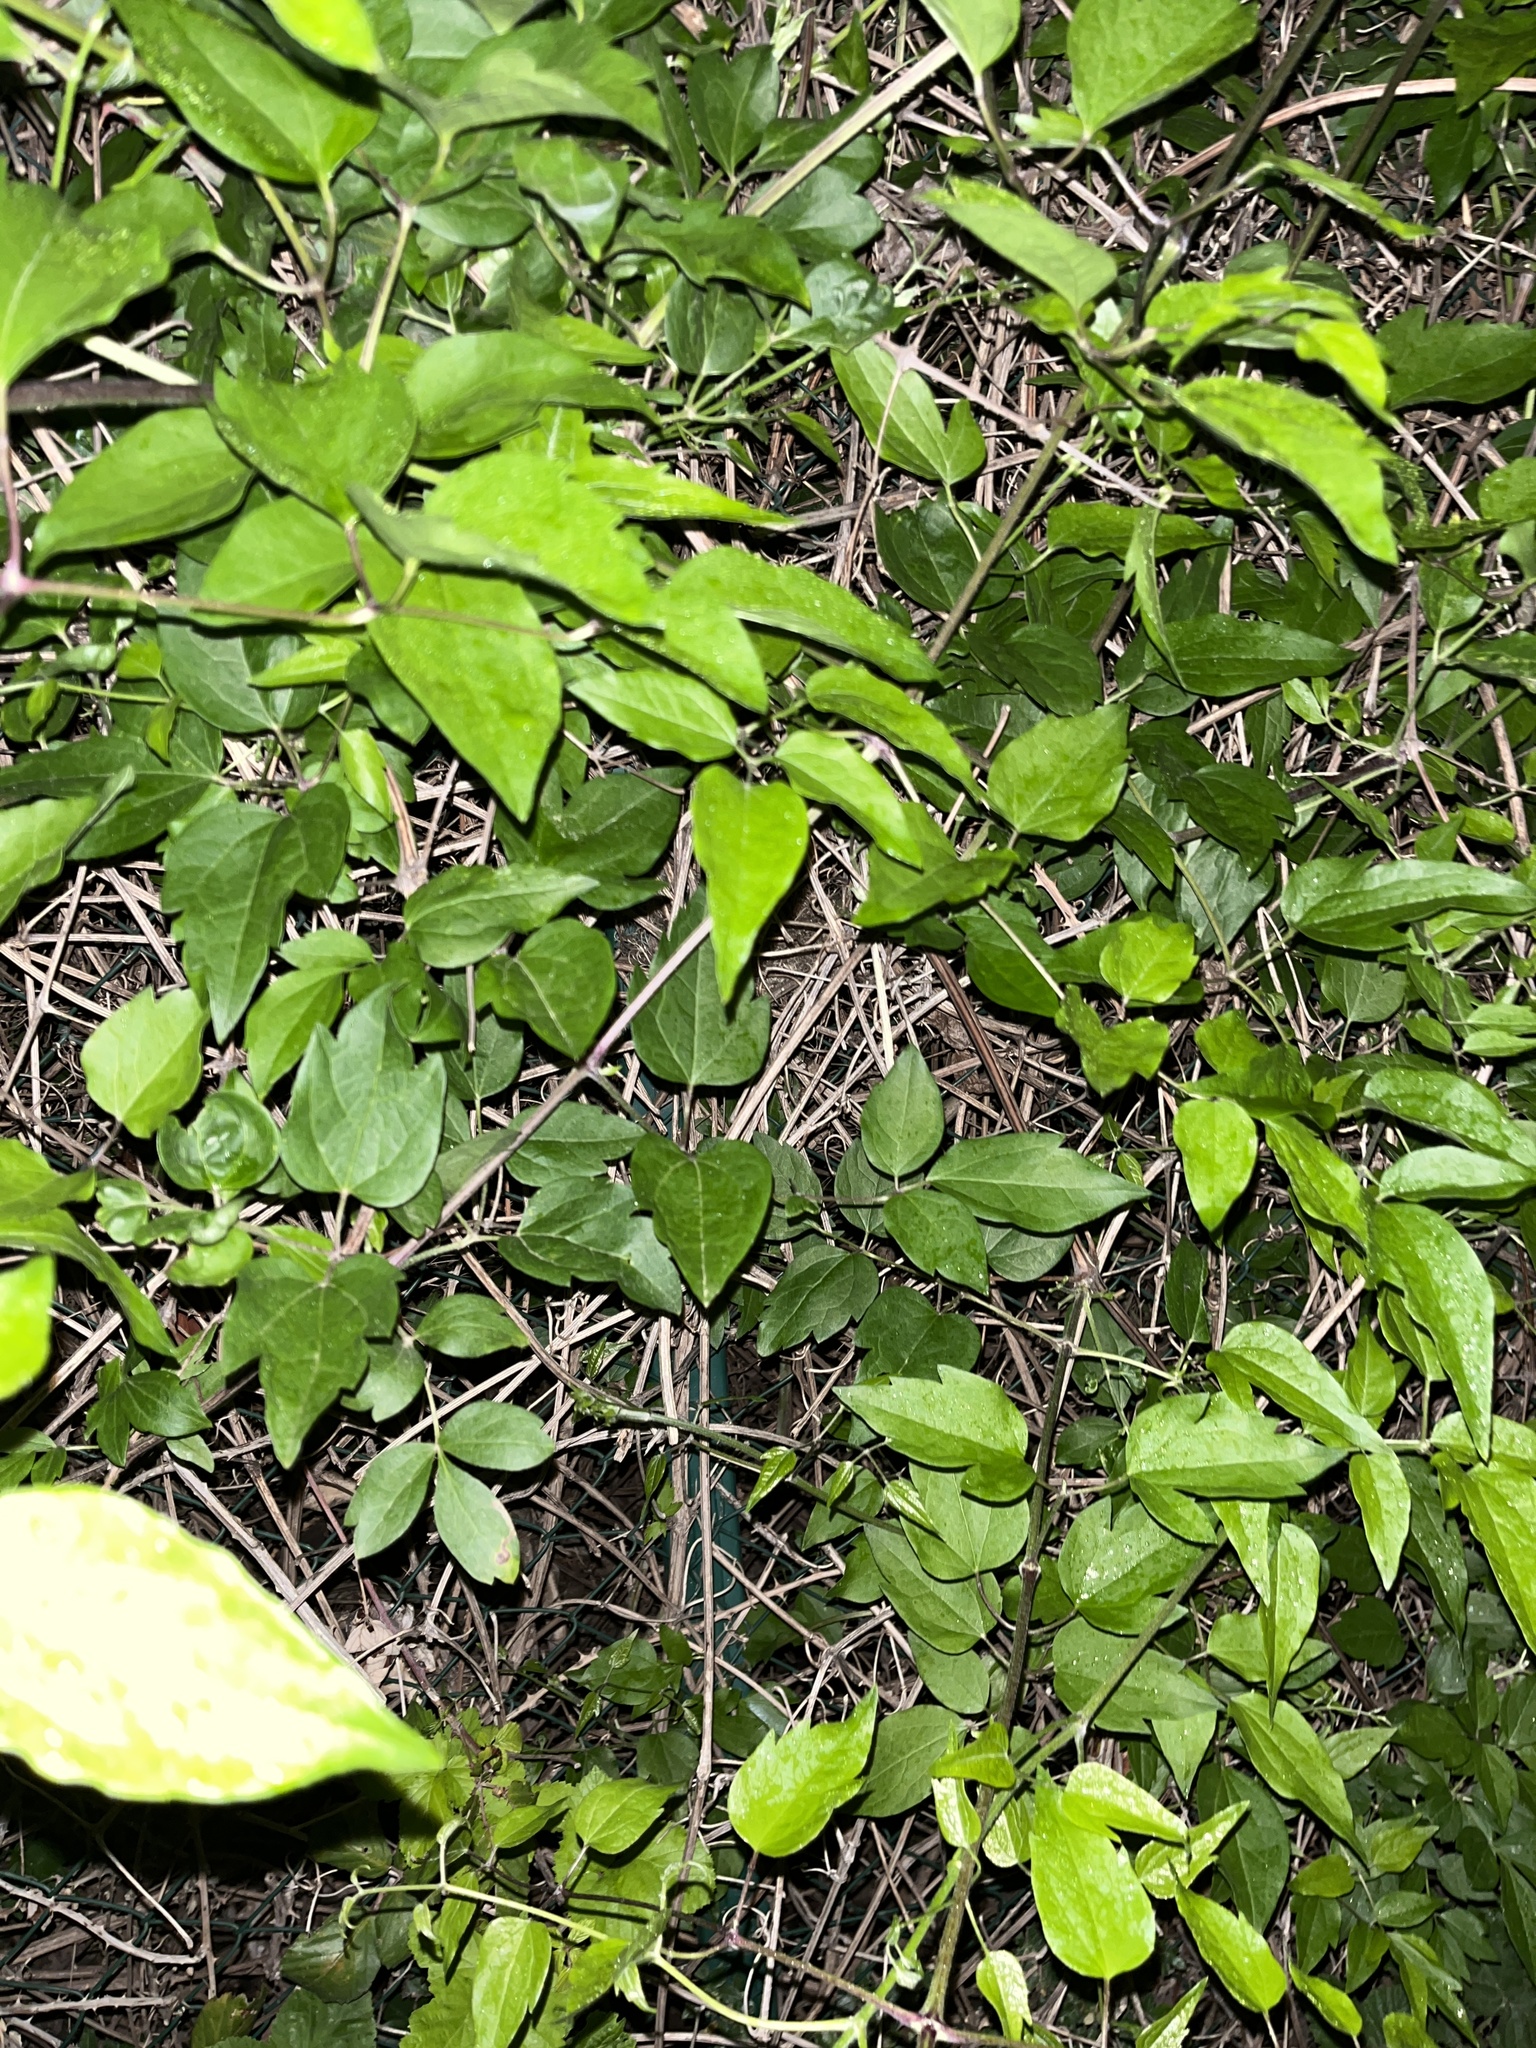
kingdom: Plantae
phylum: Tracheophyta
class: Magnoliopsida
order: Ranunculales
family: Ranunculaceae
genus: Clematis
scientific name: Clematis vitalba
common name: Evergreen clematis
